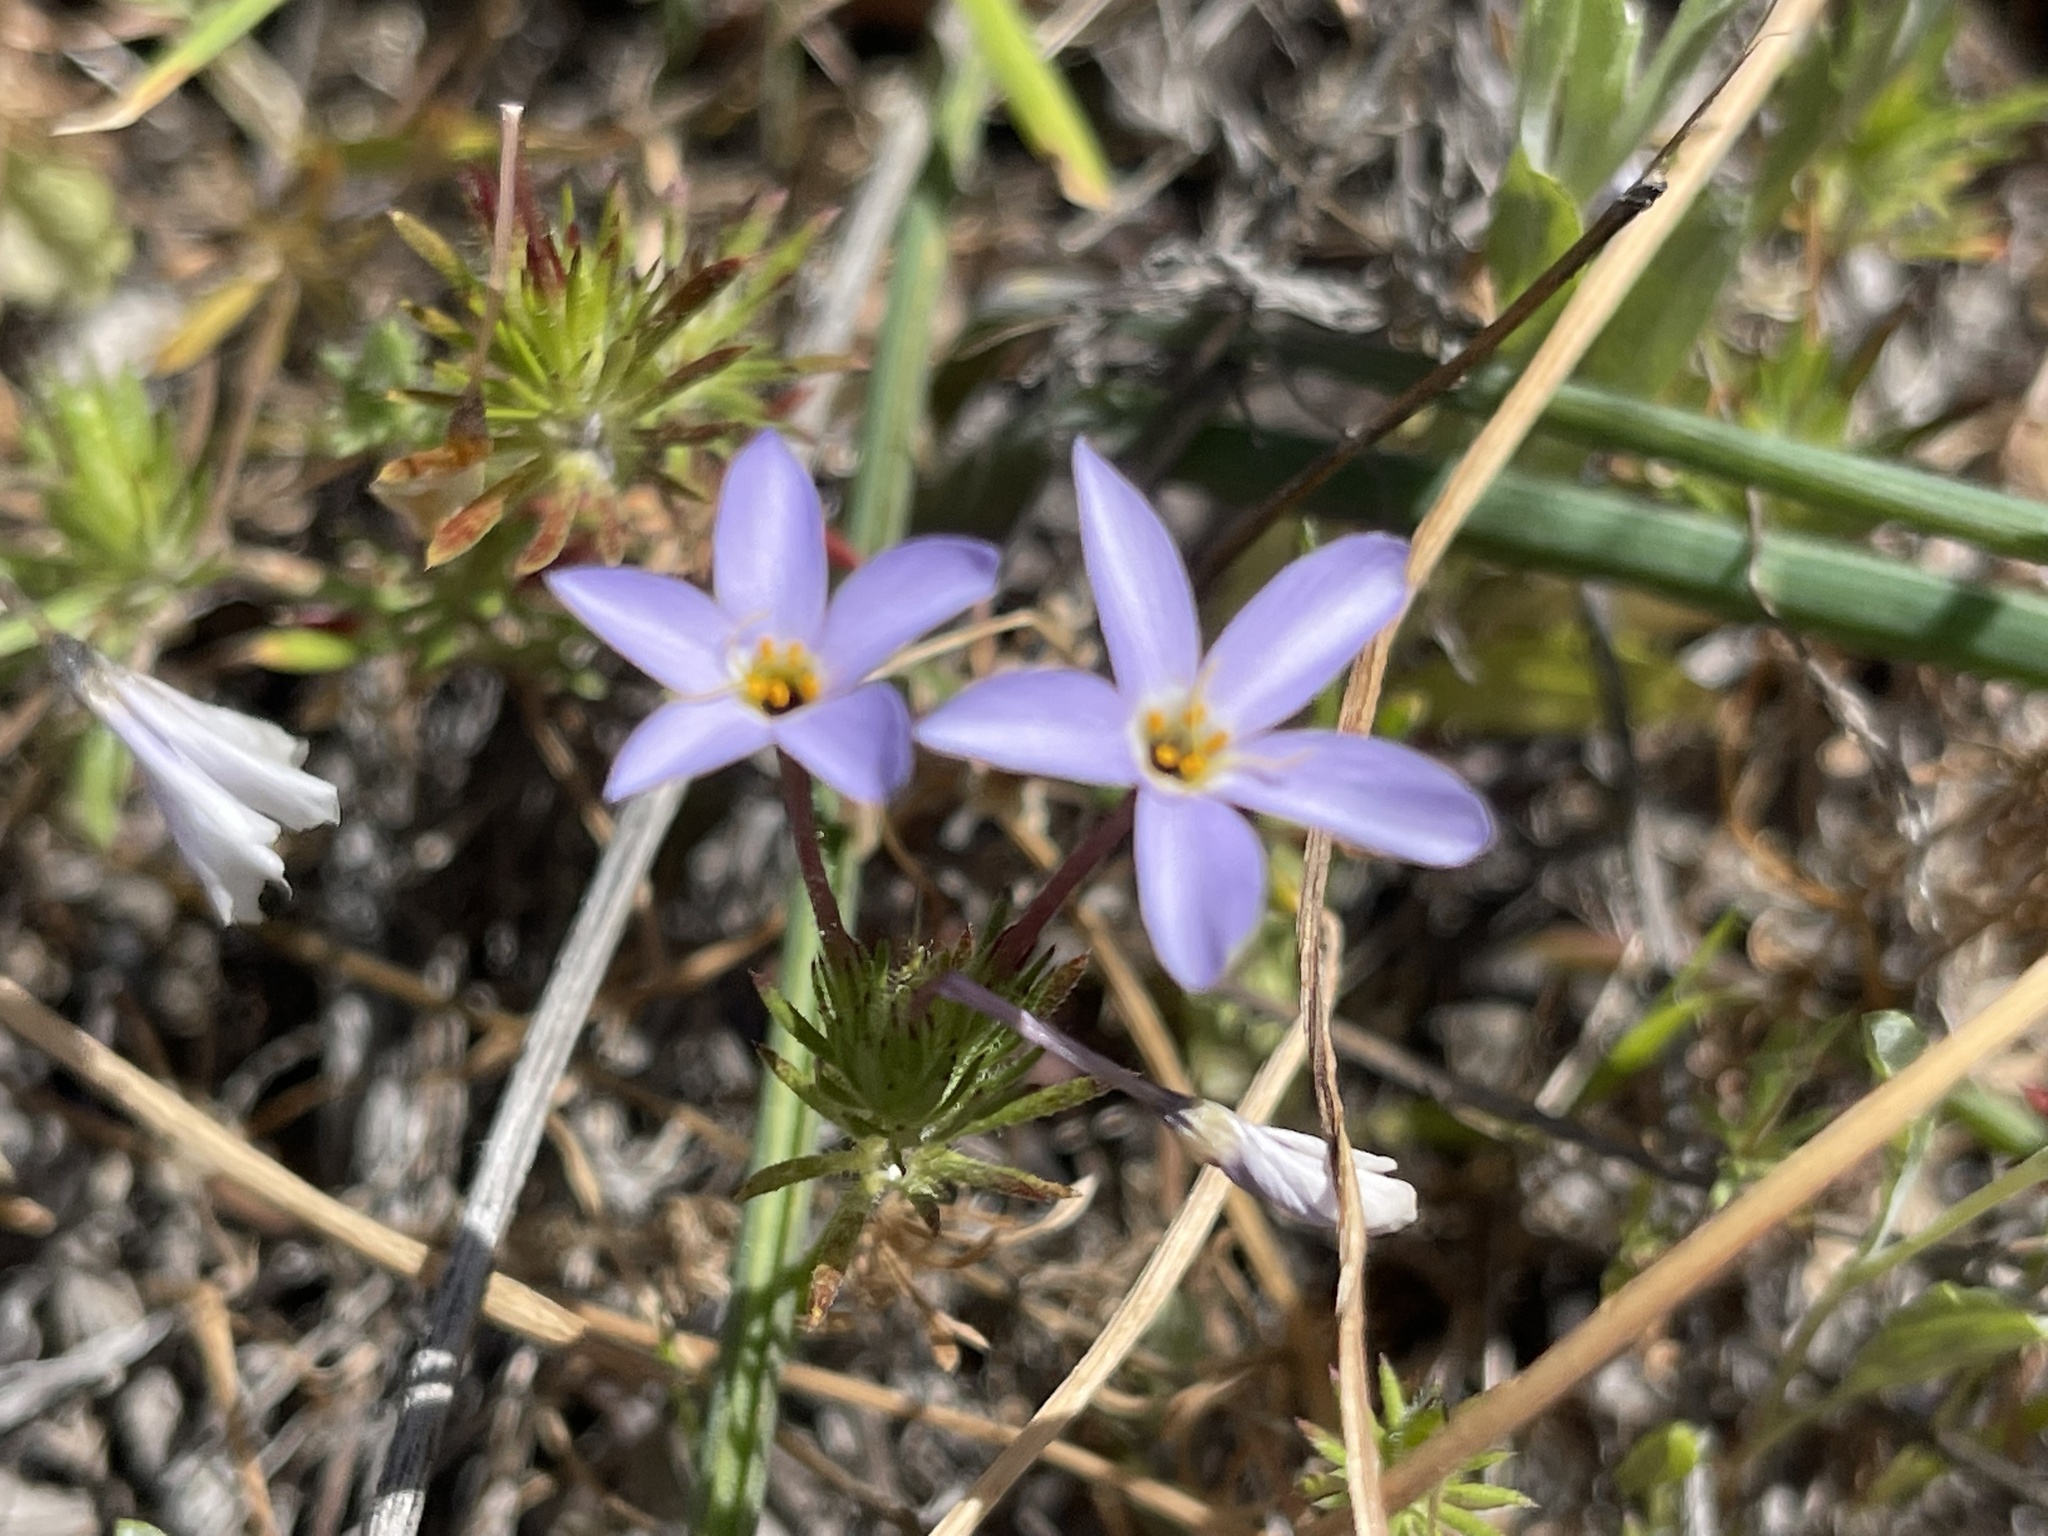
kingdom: Plantae
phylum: Tracheophyta
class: Magnoliopsida
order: Ericales
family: Polemoniaceae
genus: Leptosiphon
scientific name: Leptosiphon androsaceus
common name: False babystars
